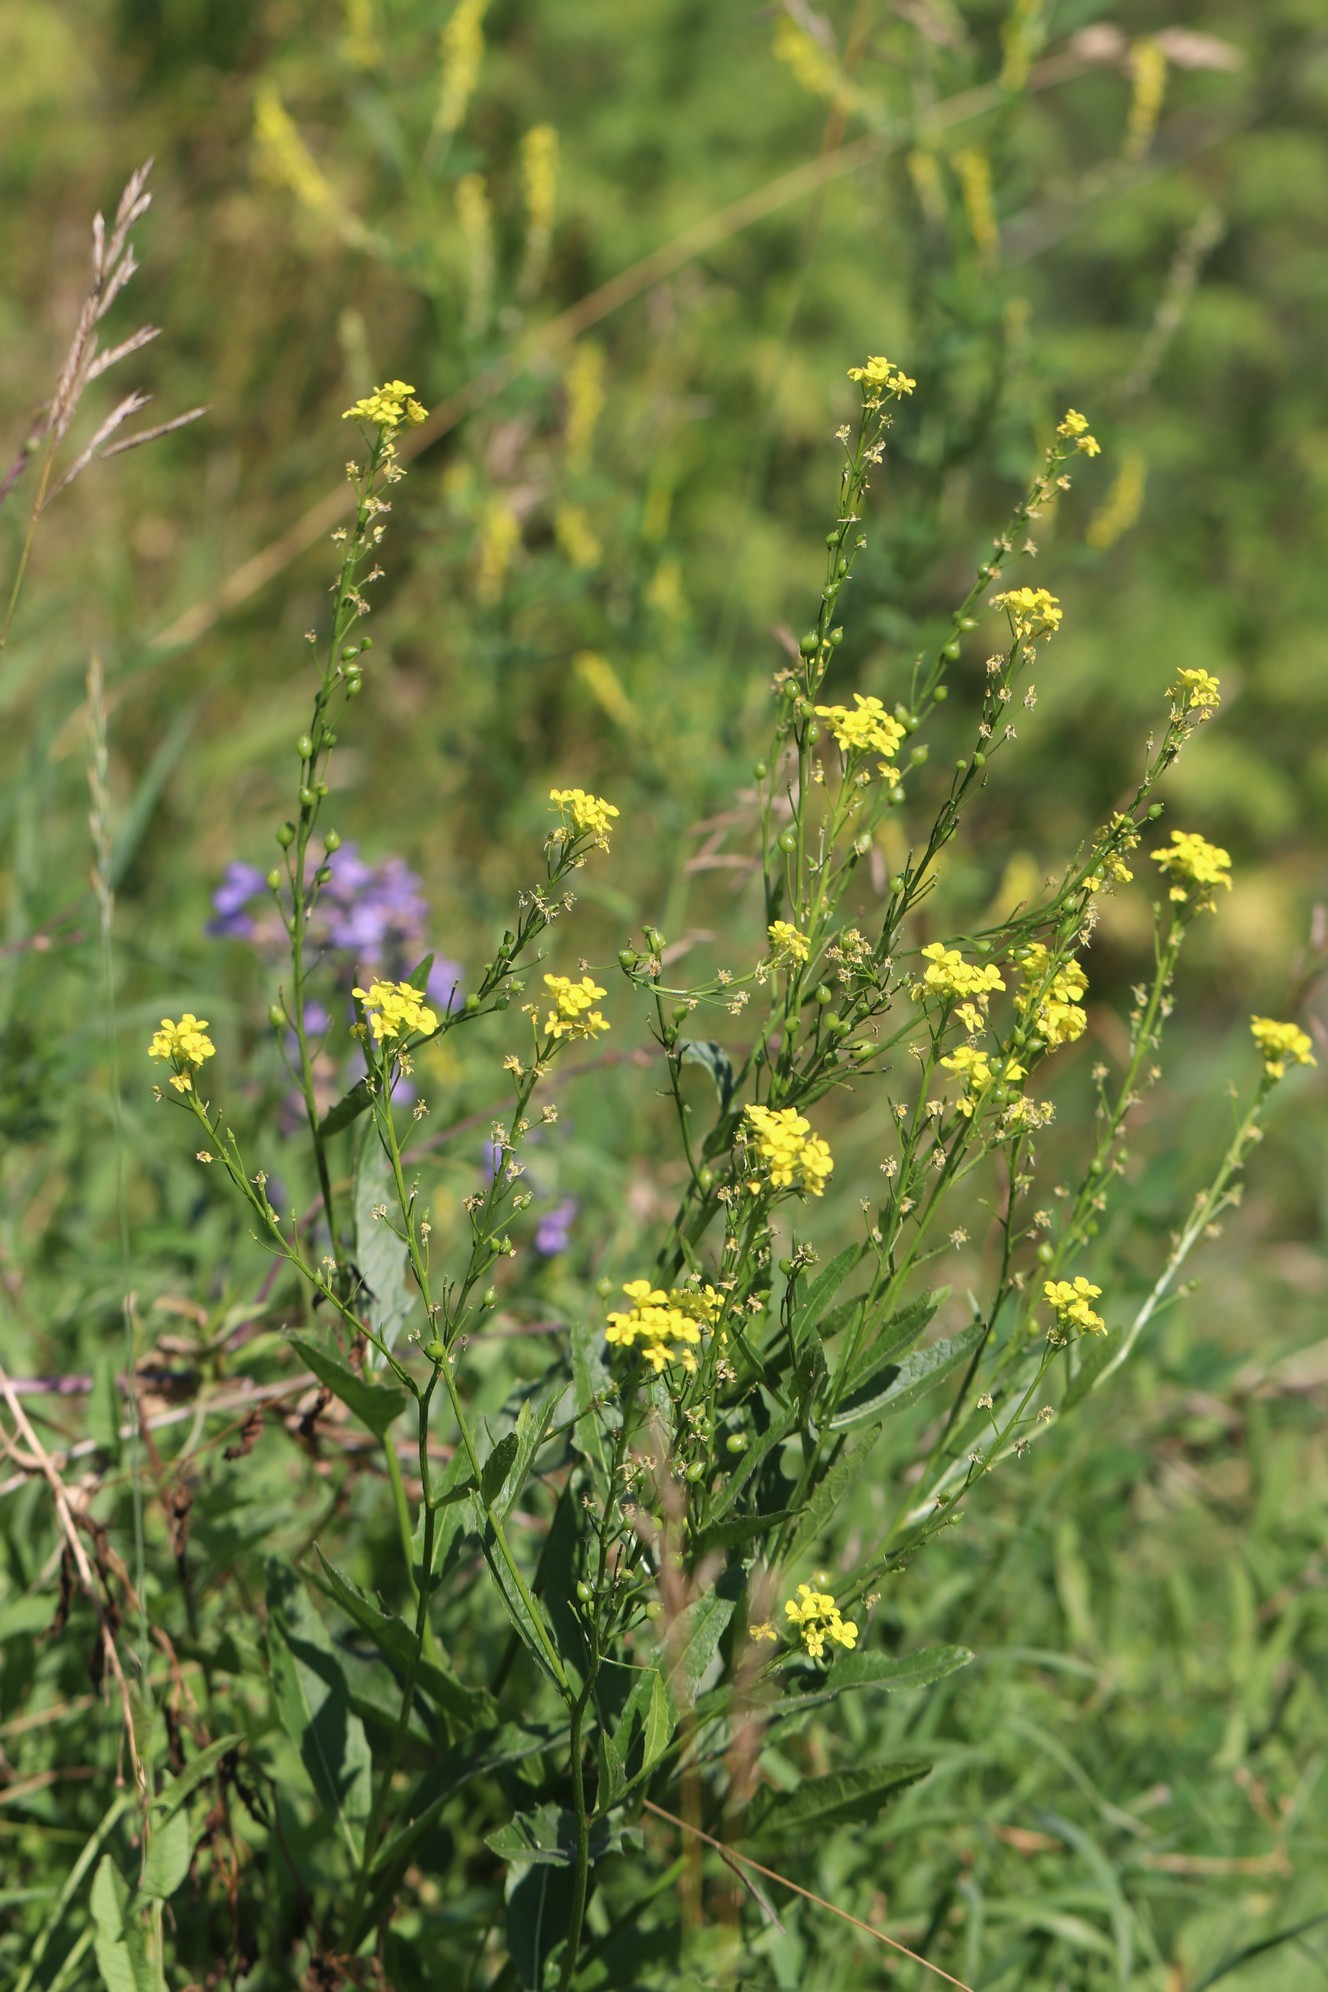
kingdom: Plantae
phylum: Tracheophyta
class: Magnoliopsida
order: Brassicales
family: Brassicaceae
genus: Bunias
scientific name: Bunias orientalis
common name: Warty-cabbage
